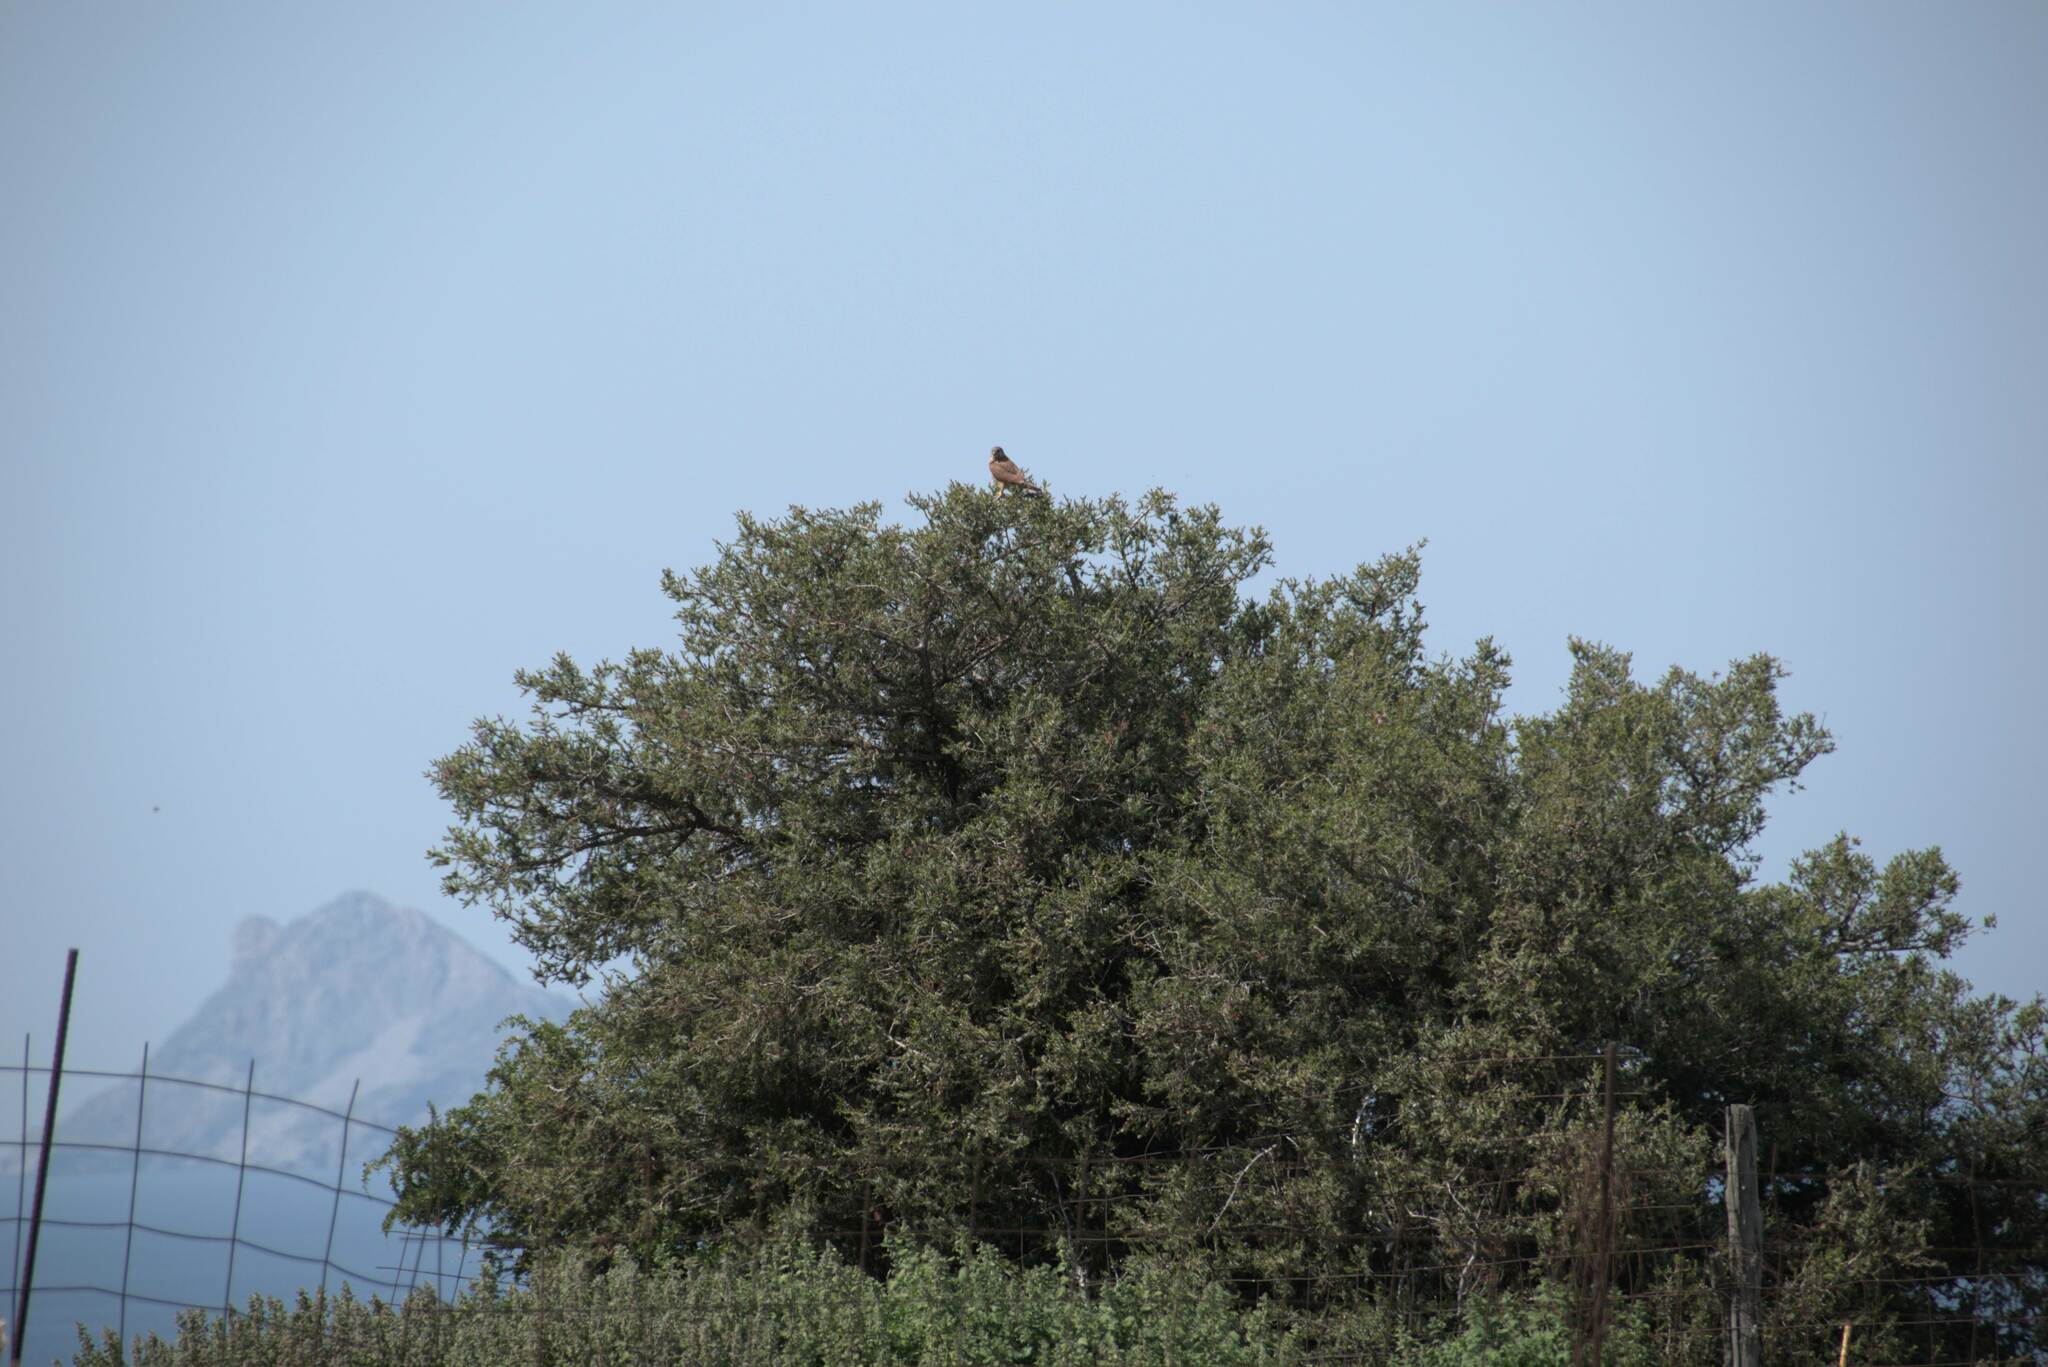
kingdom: Animalia
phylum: Chordata
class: Aves
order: Falconiformes
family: Falconidae
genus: Falco
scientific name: Falco tinnunculus
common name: Common kestrel
